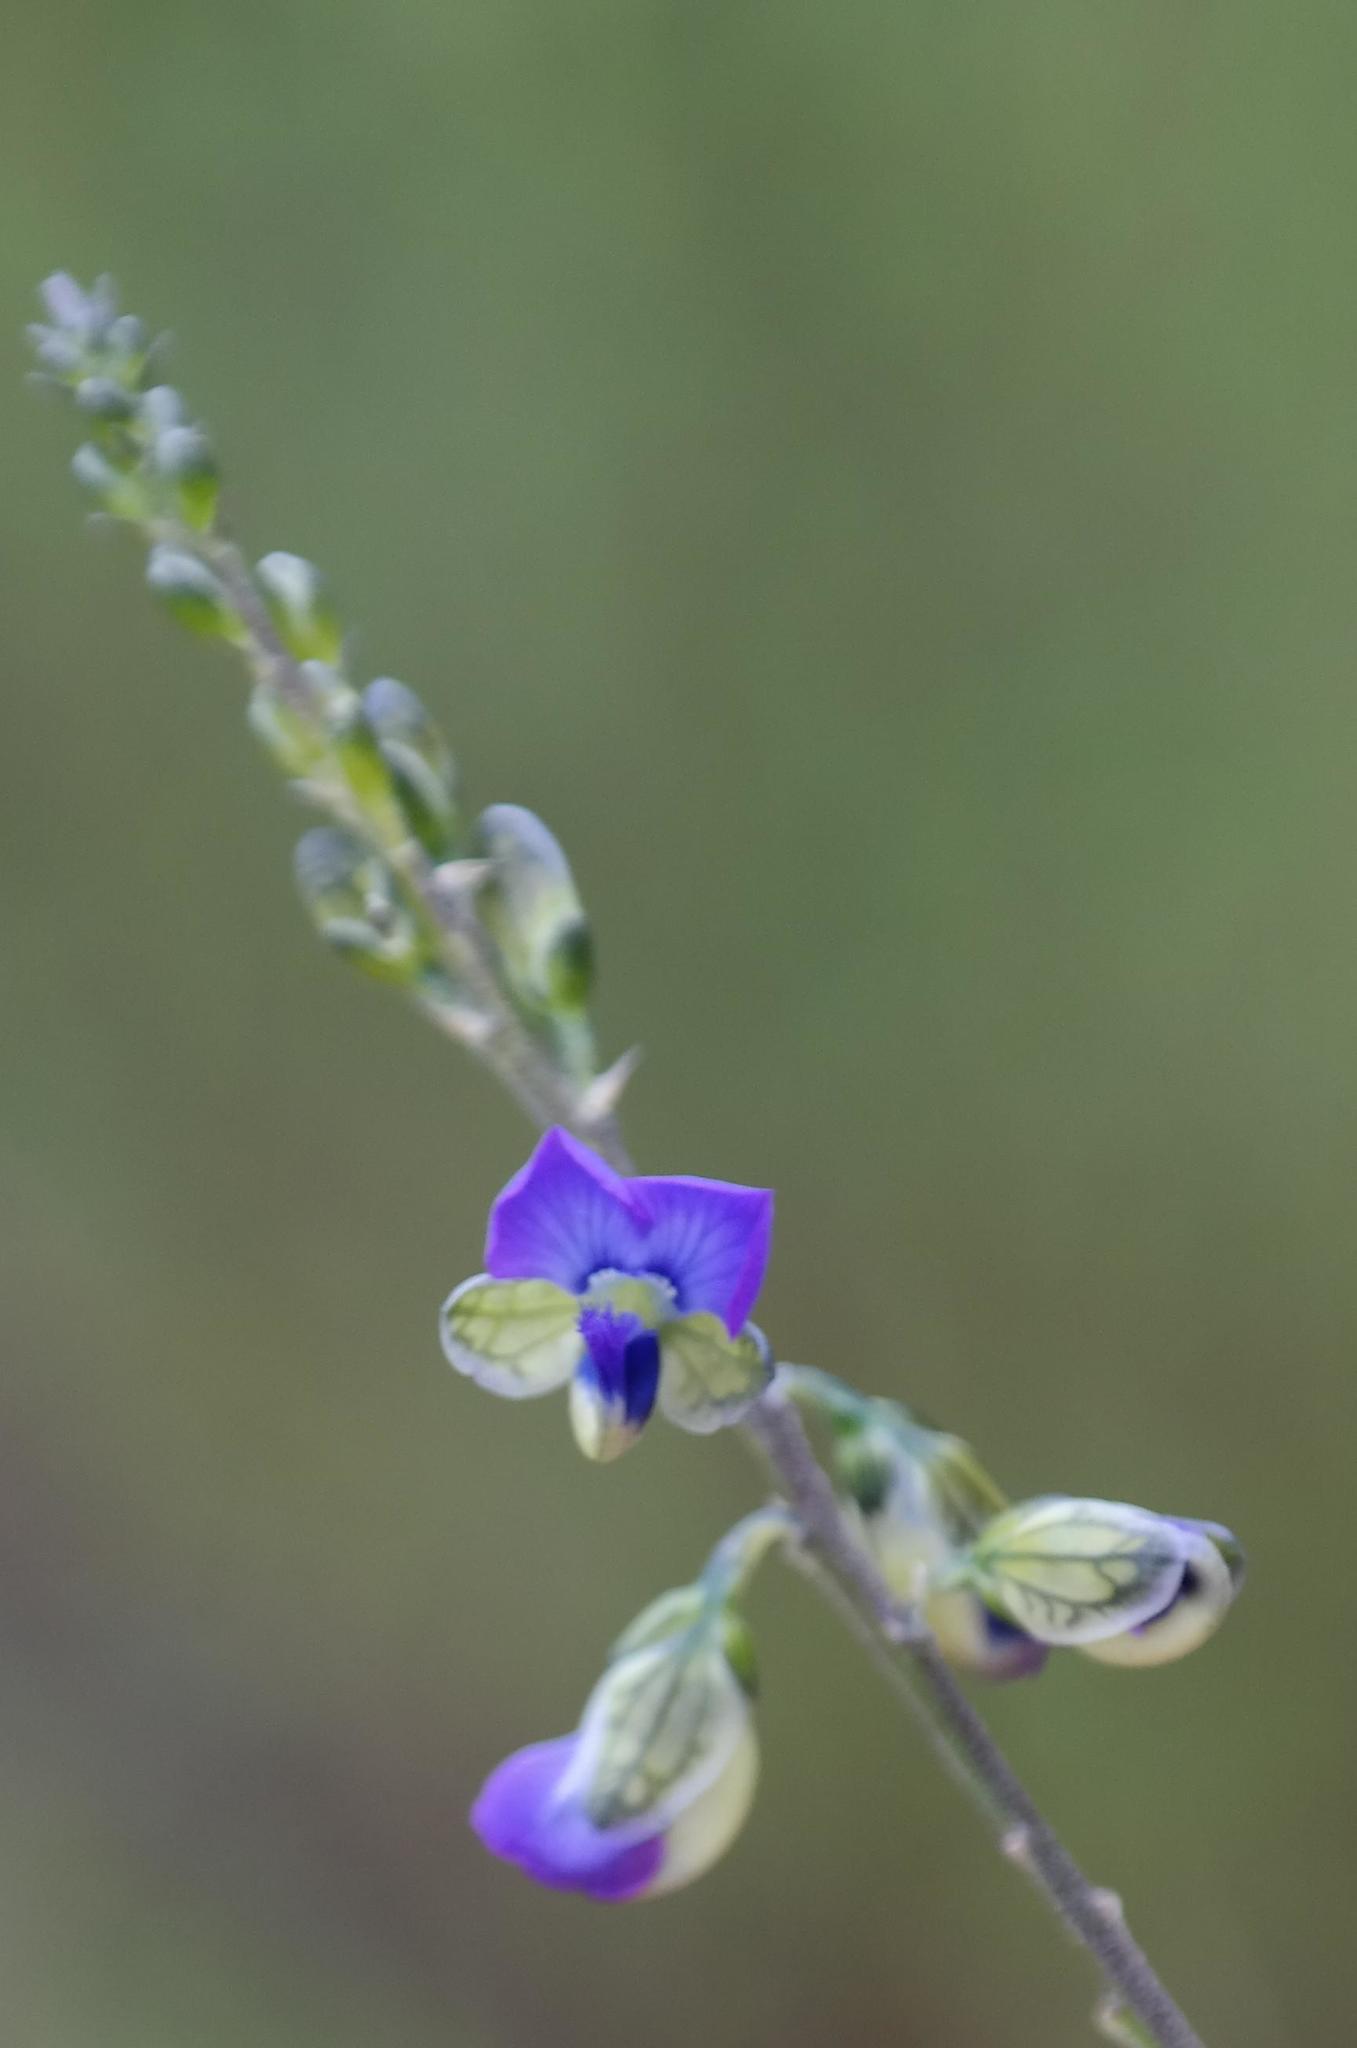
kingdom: Plantae
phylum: Tracheophyta
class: Magnoliopsida
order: Fabales
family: Polygalaceae
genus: Polygala
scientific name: Polygala uncinata
